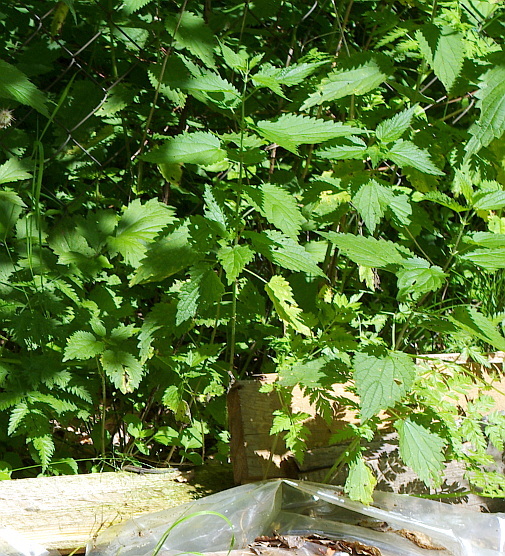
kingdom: Plantae
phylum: Tracheophyta
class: Magnoliopsida
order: Rosales
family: Urticaceae
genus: Urtica
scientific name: Urtica dioica
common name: Common nettle
